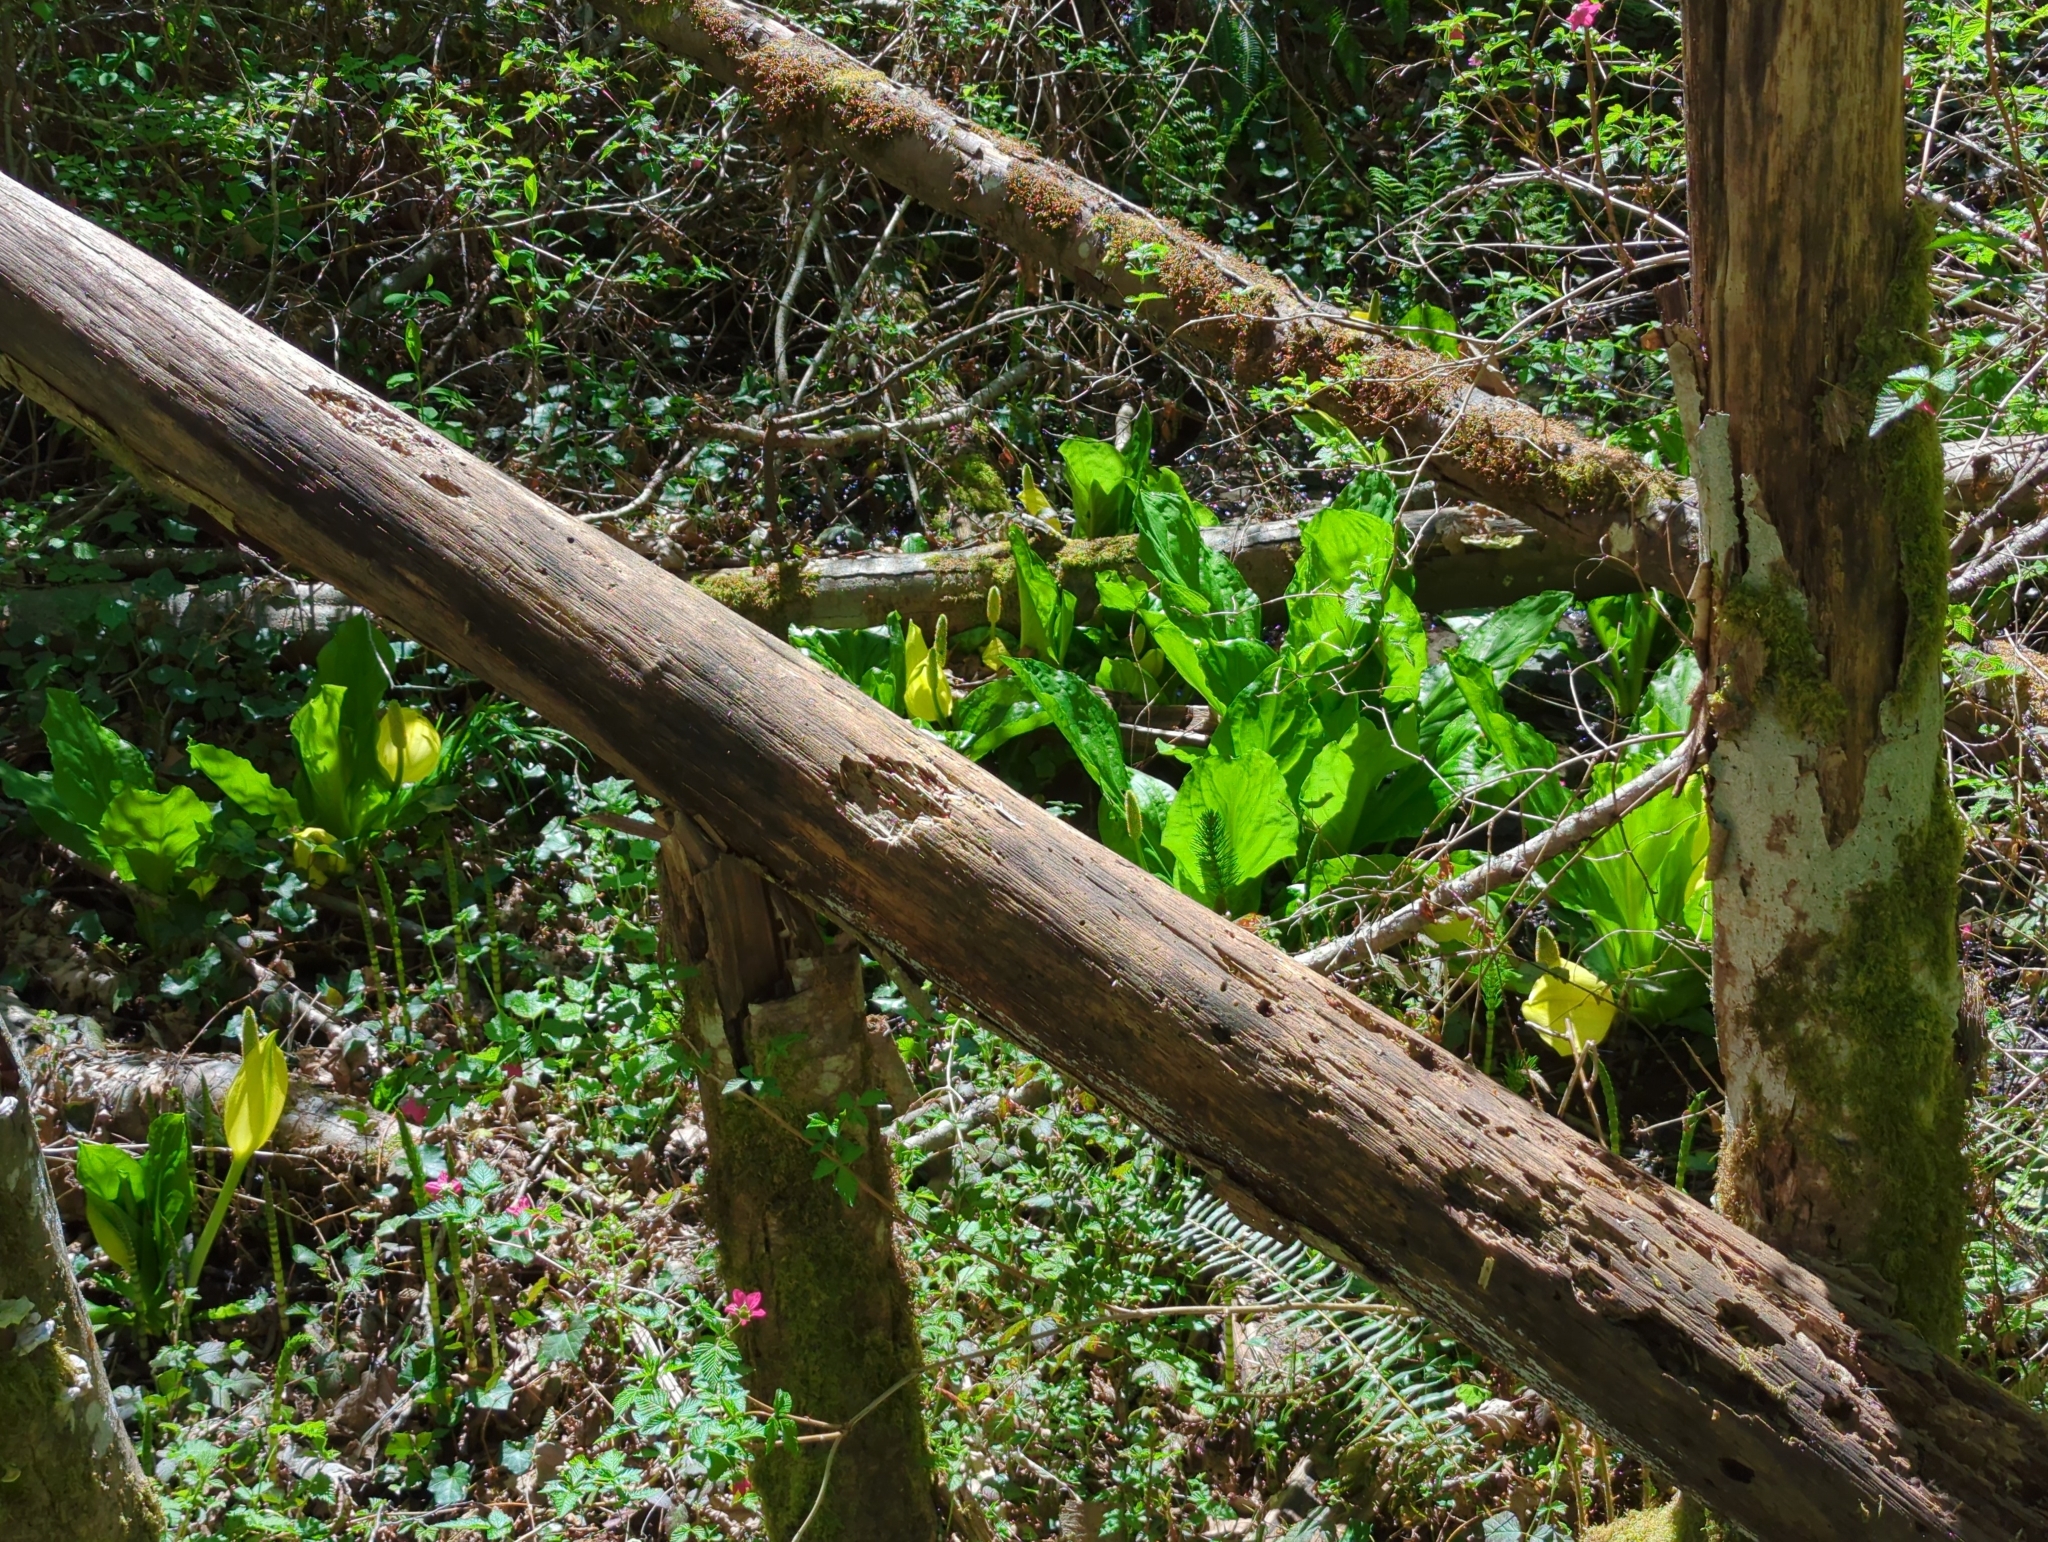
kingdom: Plantae
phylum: Tracheophyta
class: Liliopsida
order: Alismatales
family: Araceae
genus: Lysichiton
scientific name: Lysichiton americanus
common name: American skunk cabbage
